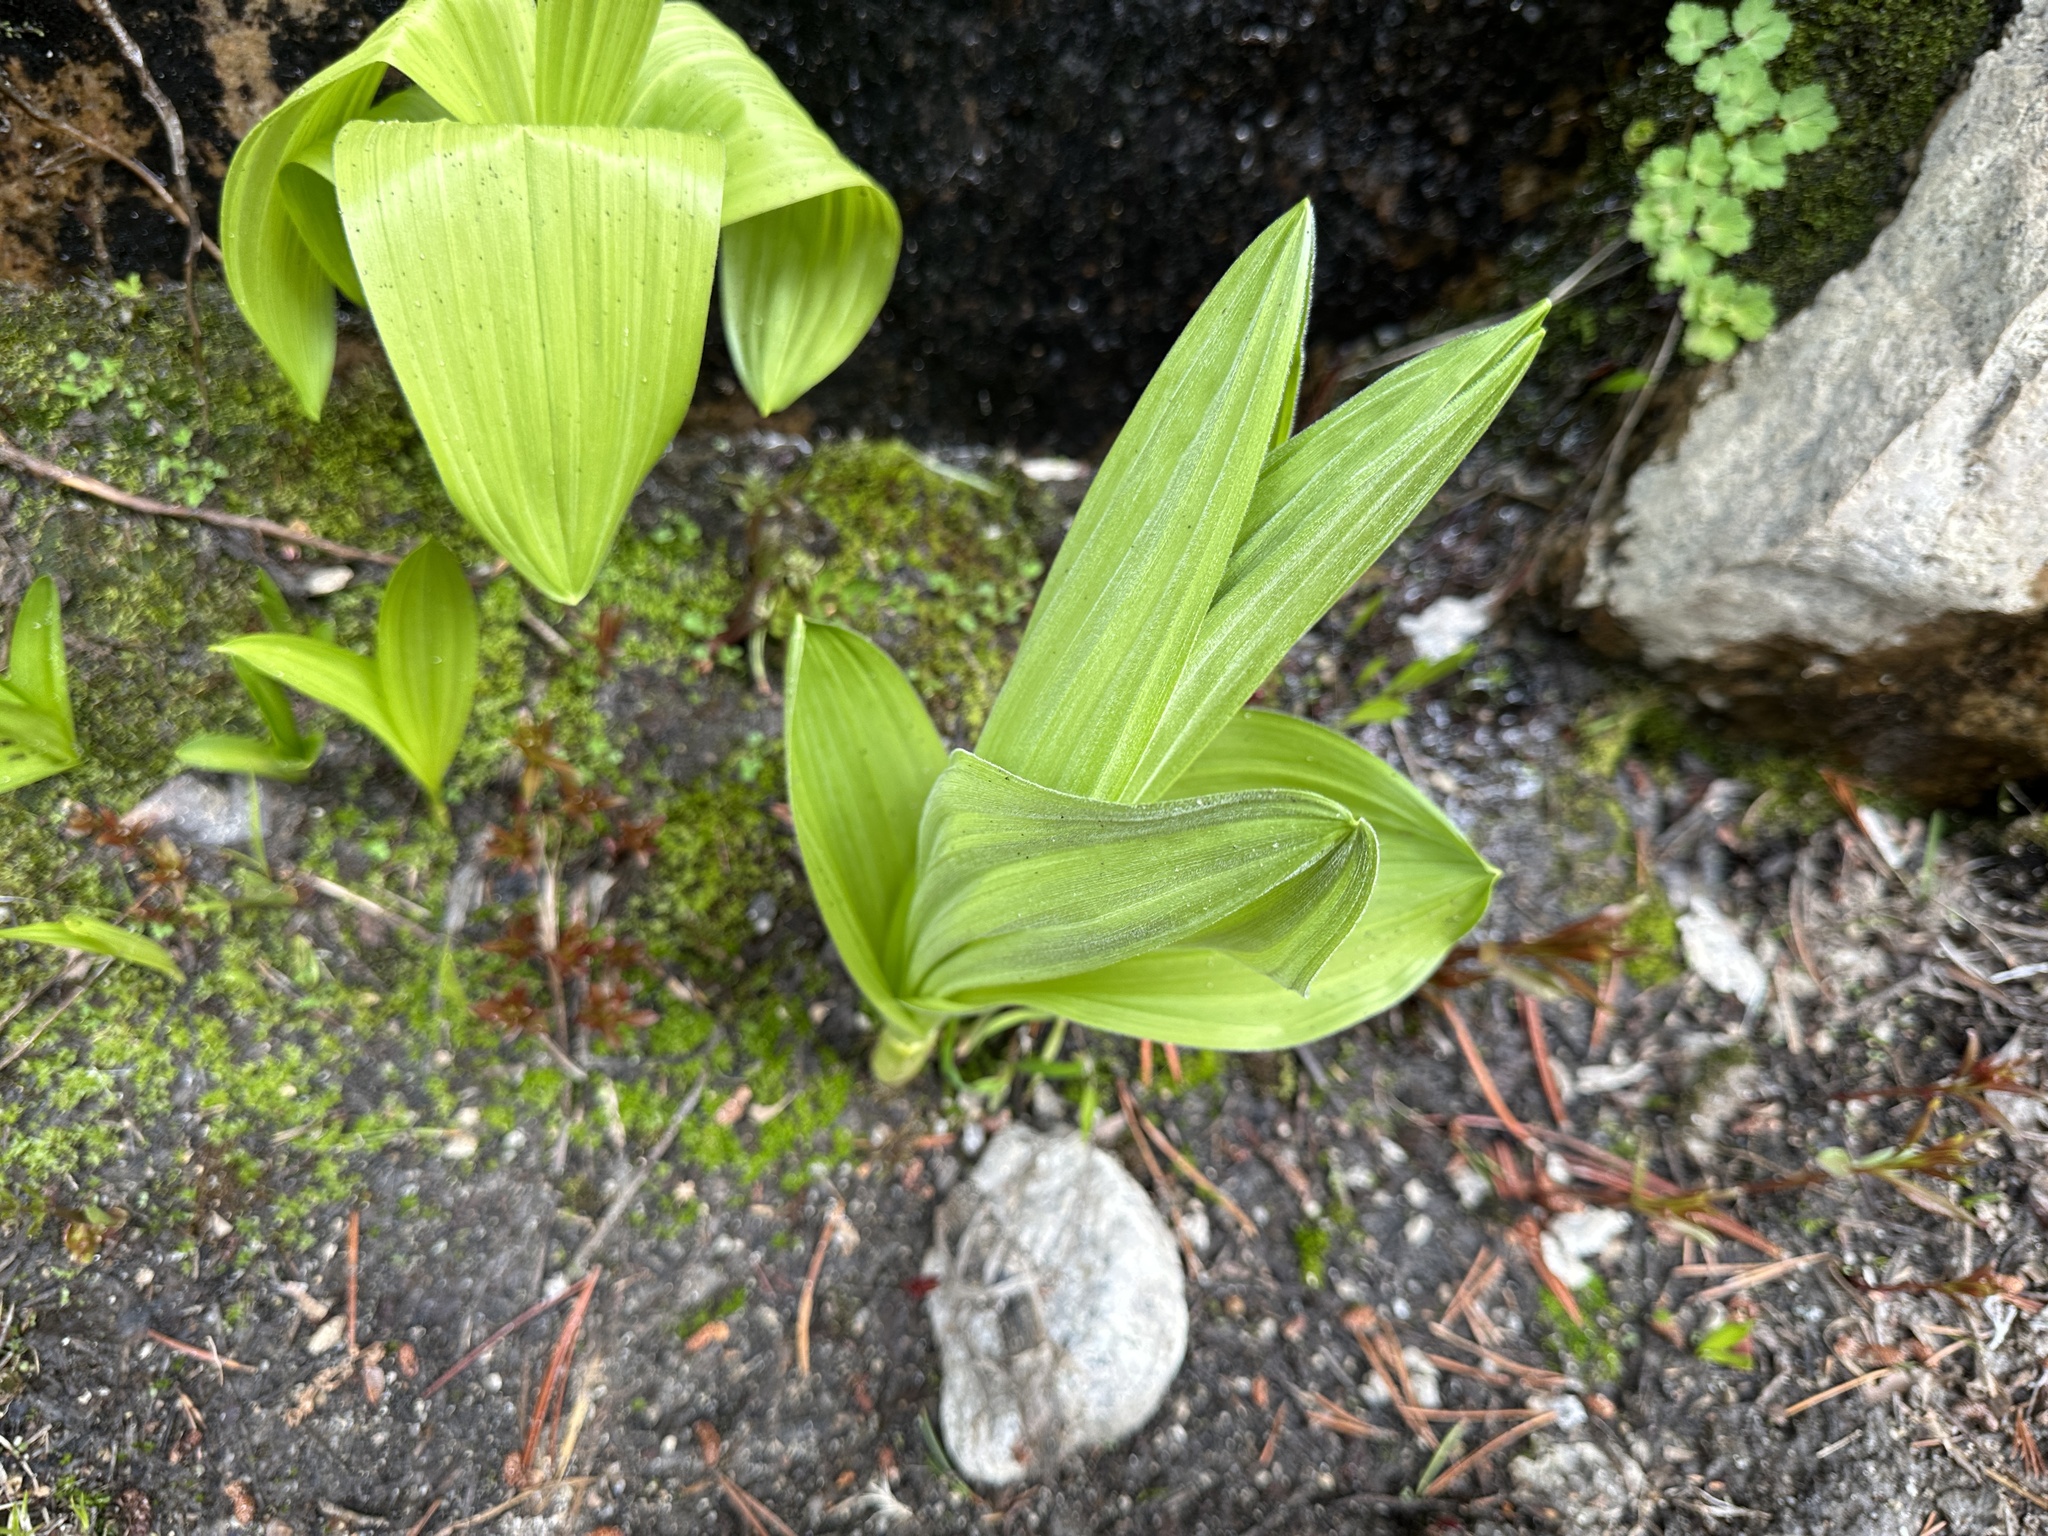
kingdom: Plantae
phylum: Tracheophyta
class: Liliopsida
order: Liliales
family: Melanthiaceae
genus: Veratrum
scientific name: Veratrum californicum
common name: California veratrum
